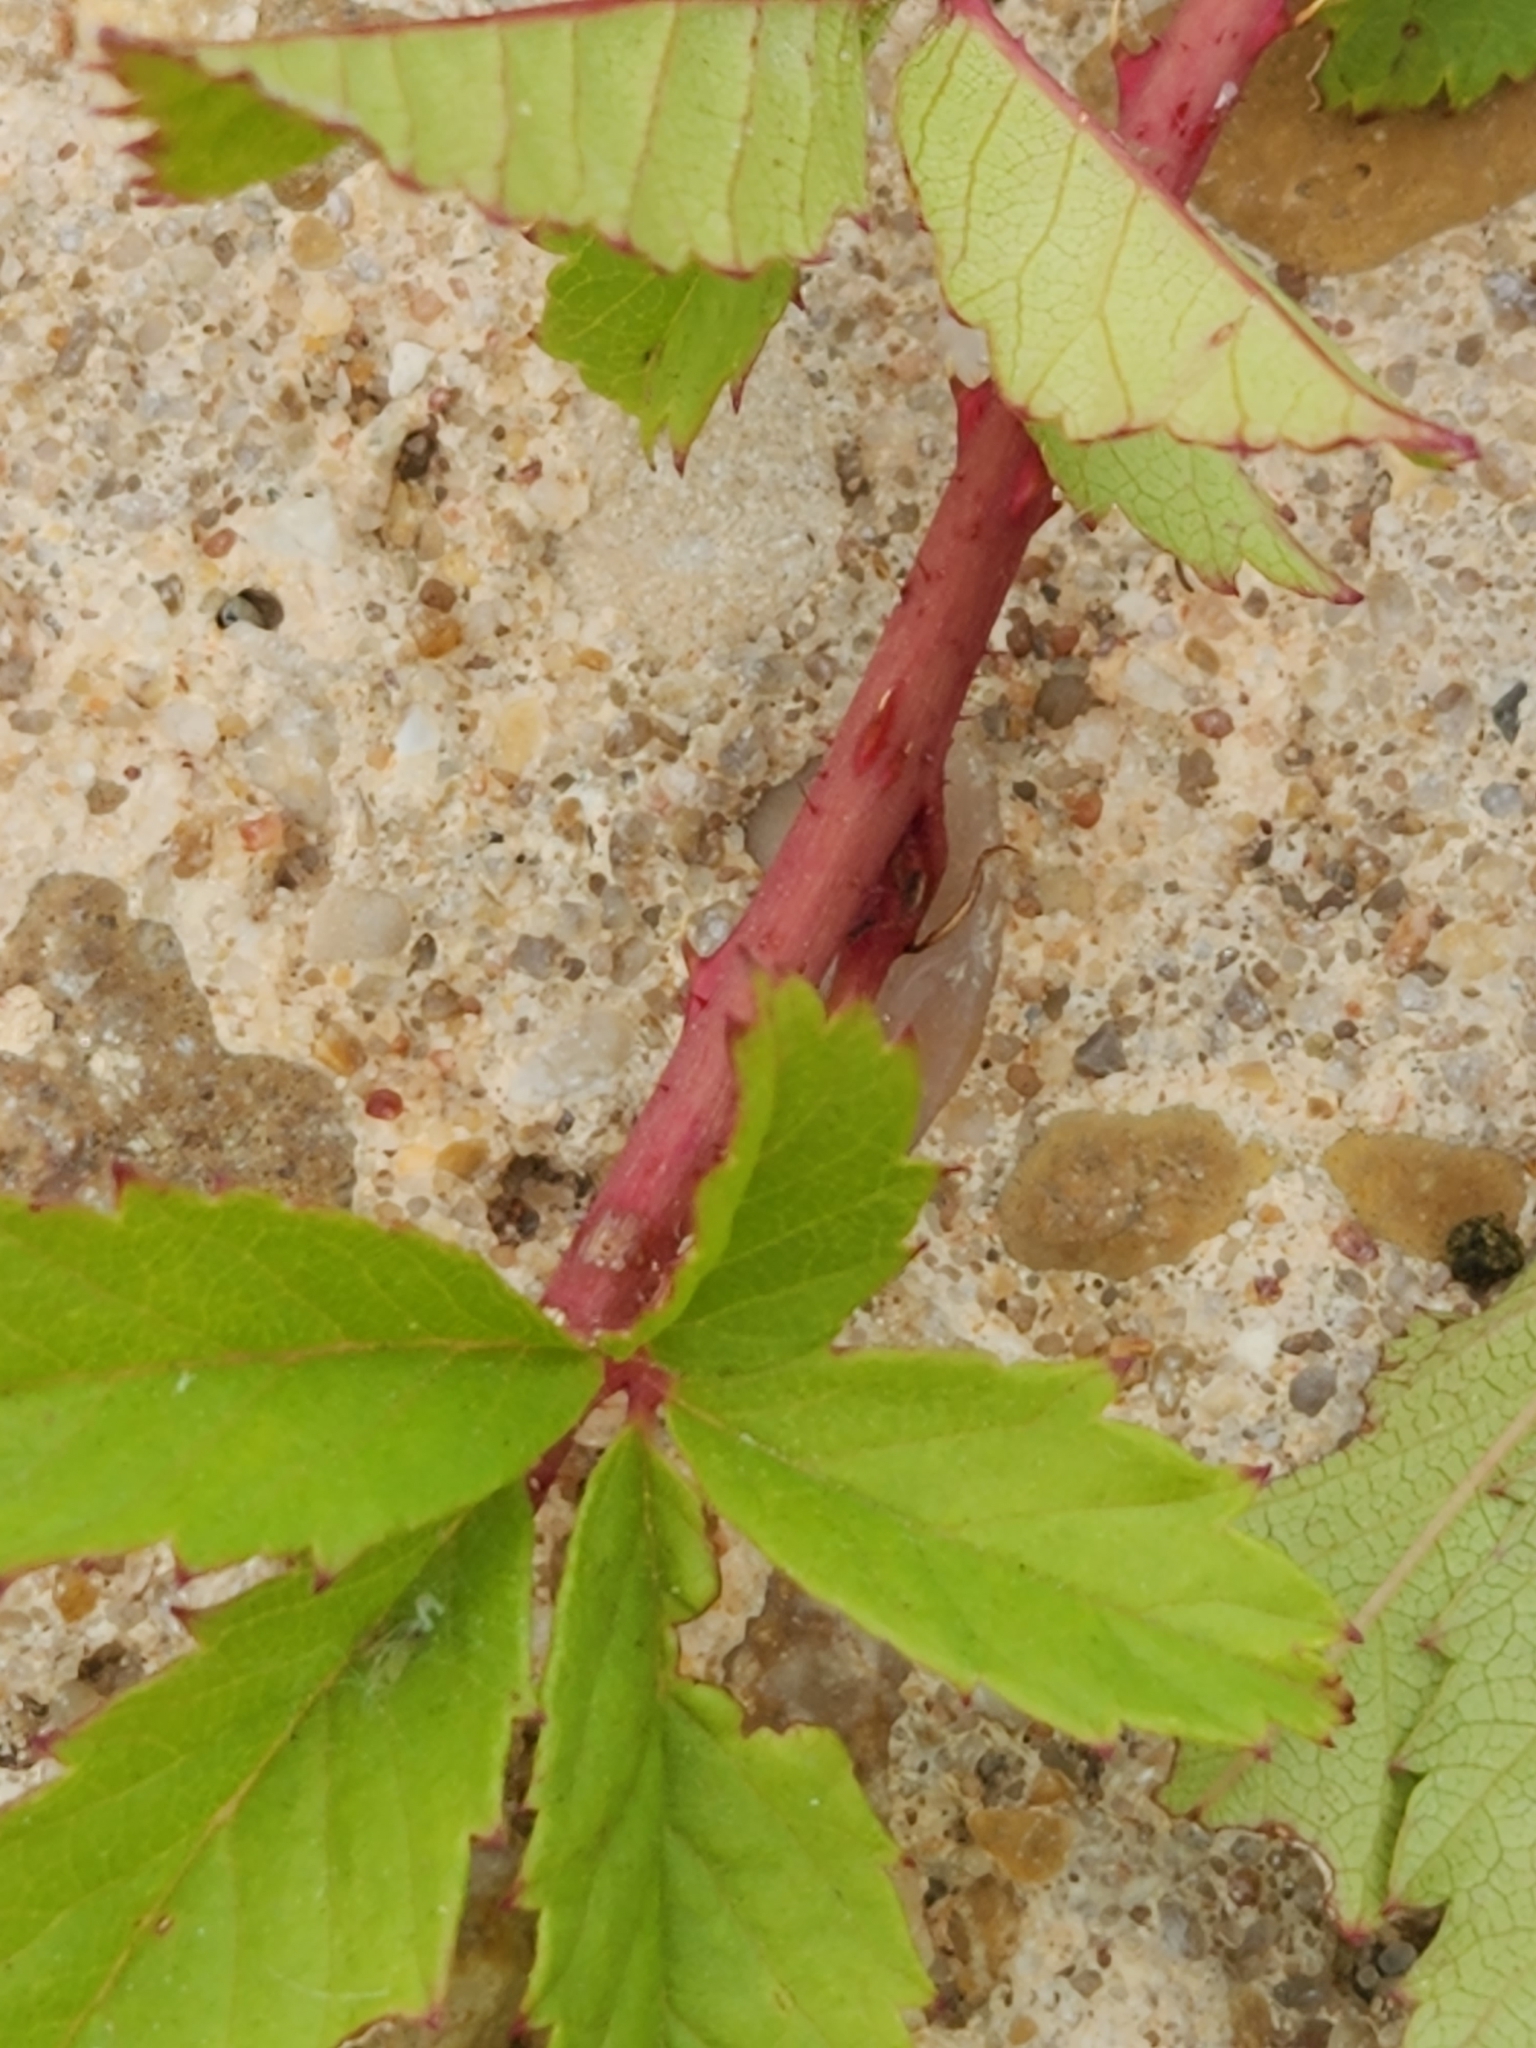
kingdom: Plantae
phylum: Tracheophyta
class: Magnoliopsida
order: Rosales
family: Rosaceae
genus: Rubus
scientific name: Rubus trivialis
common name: Southern dewberry
